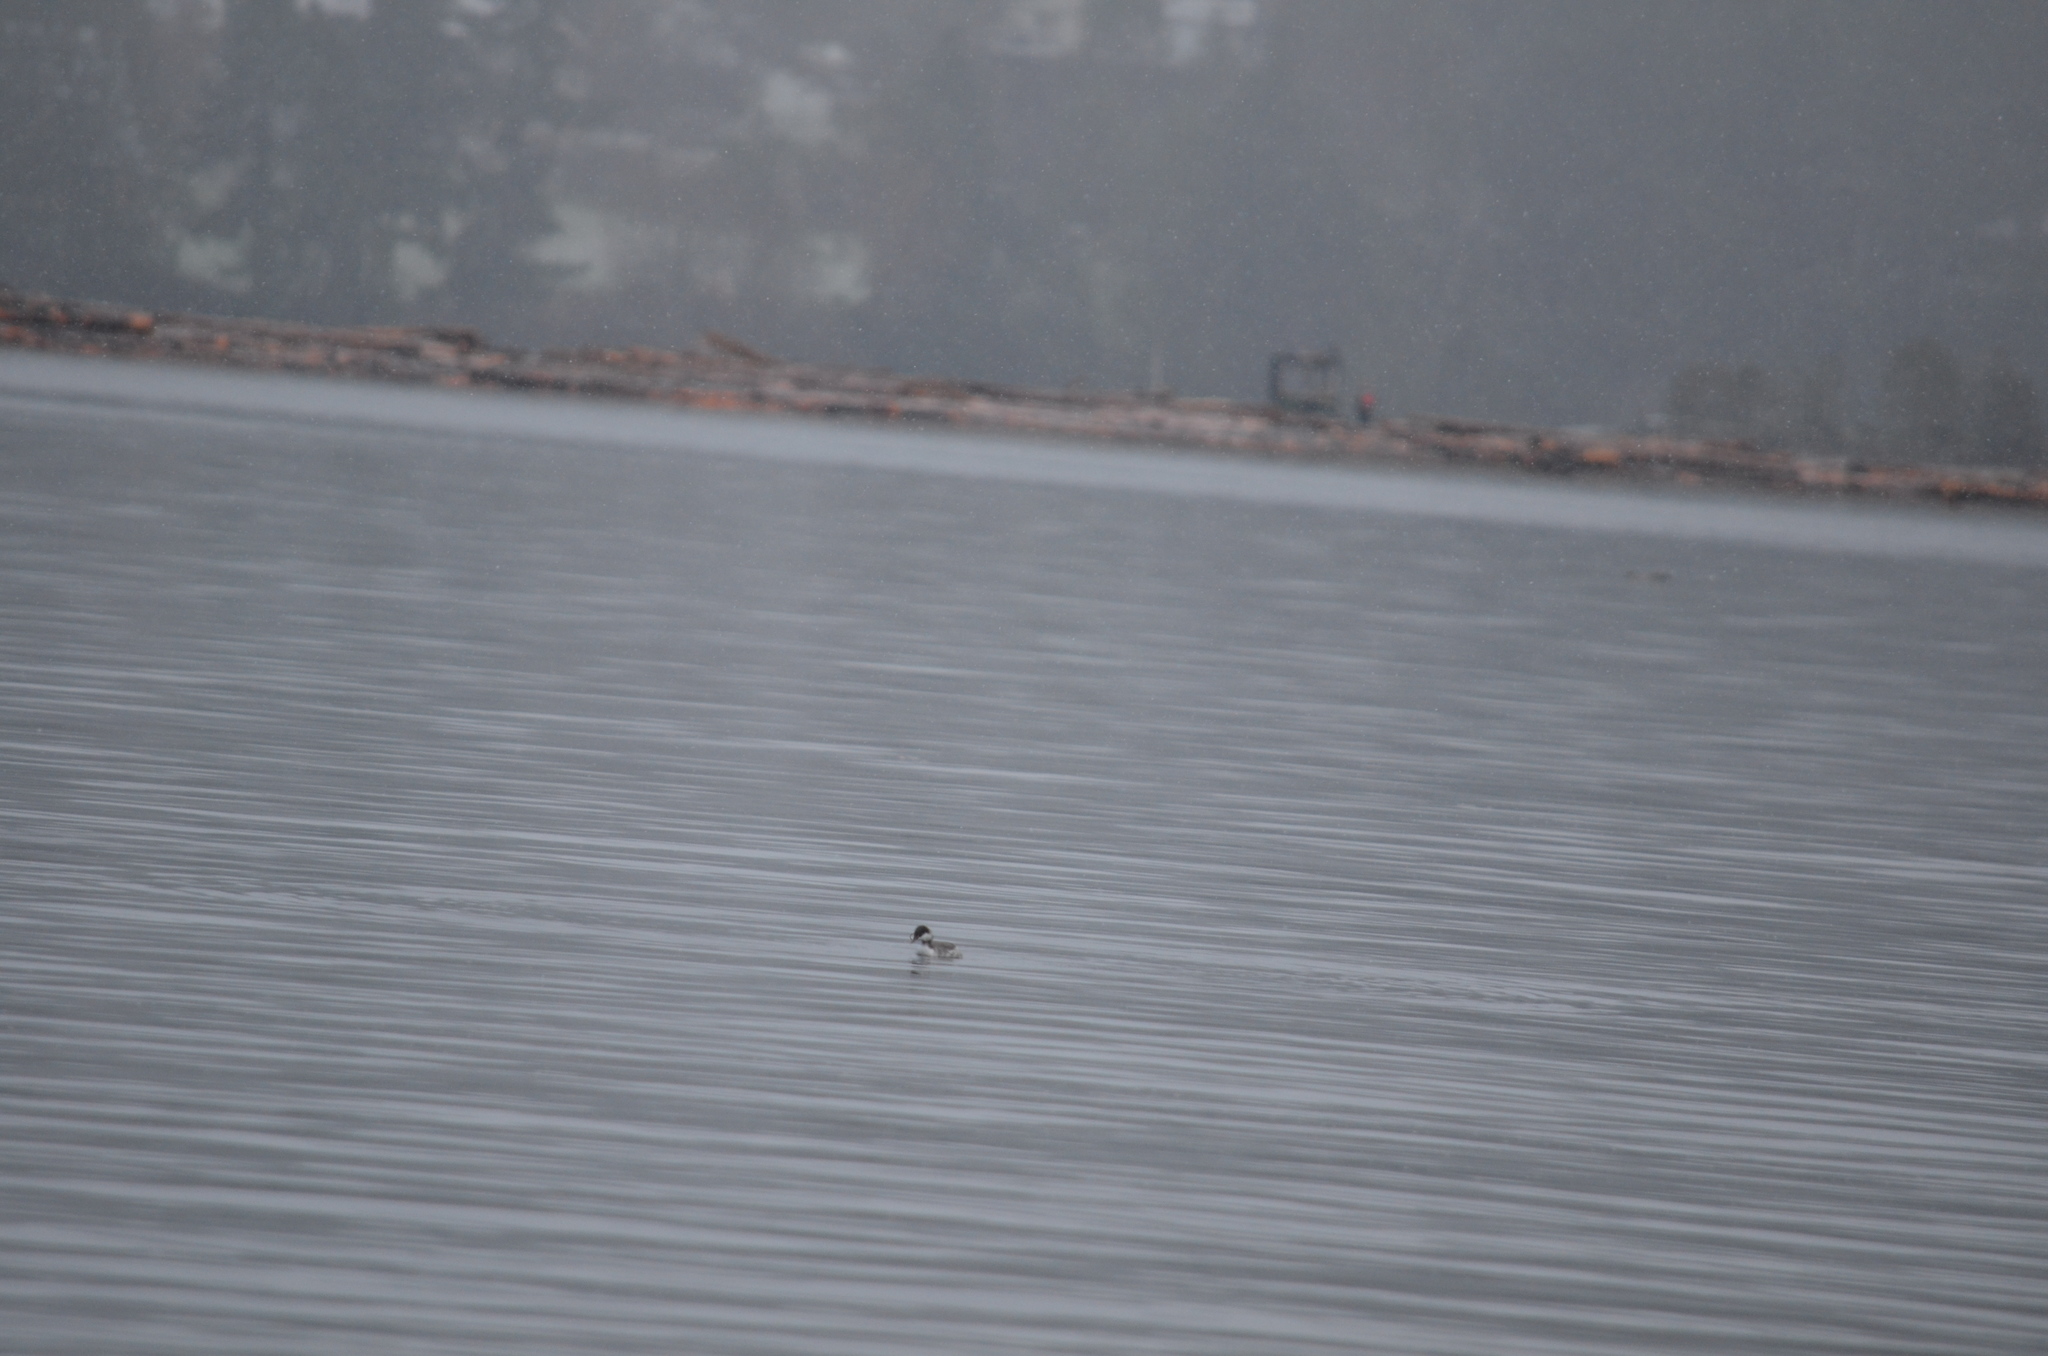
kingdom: Animalia
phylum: Chordata
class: Aves
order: Podicipediformes
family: Podicipedidae
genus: Podiceps
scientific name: Podiceps auritus
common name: Horned grebe
